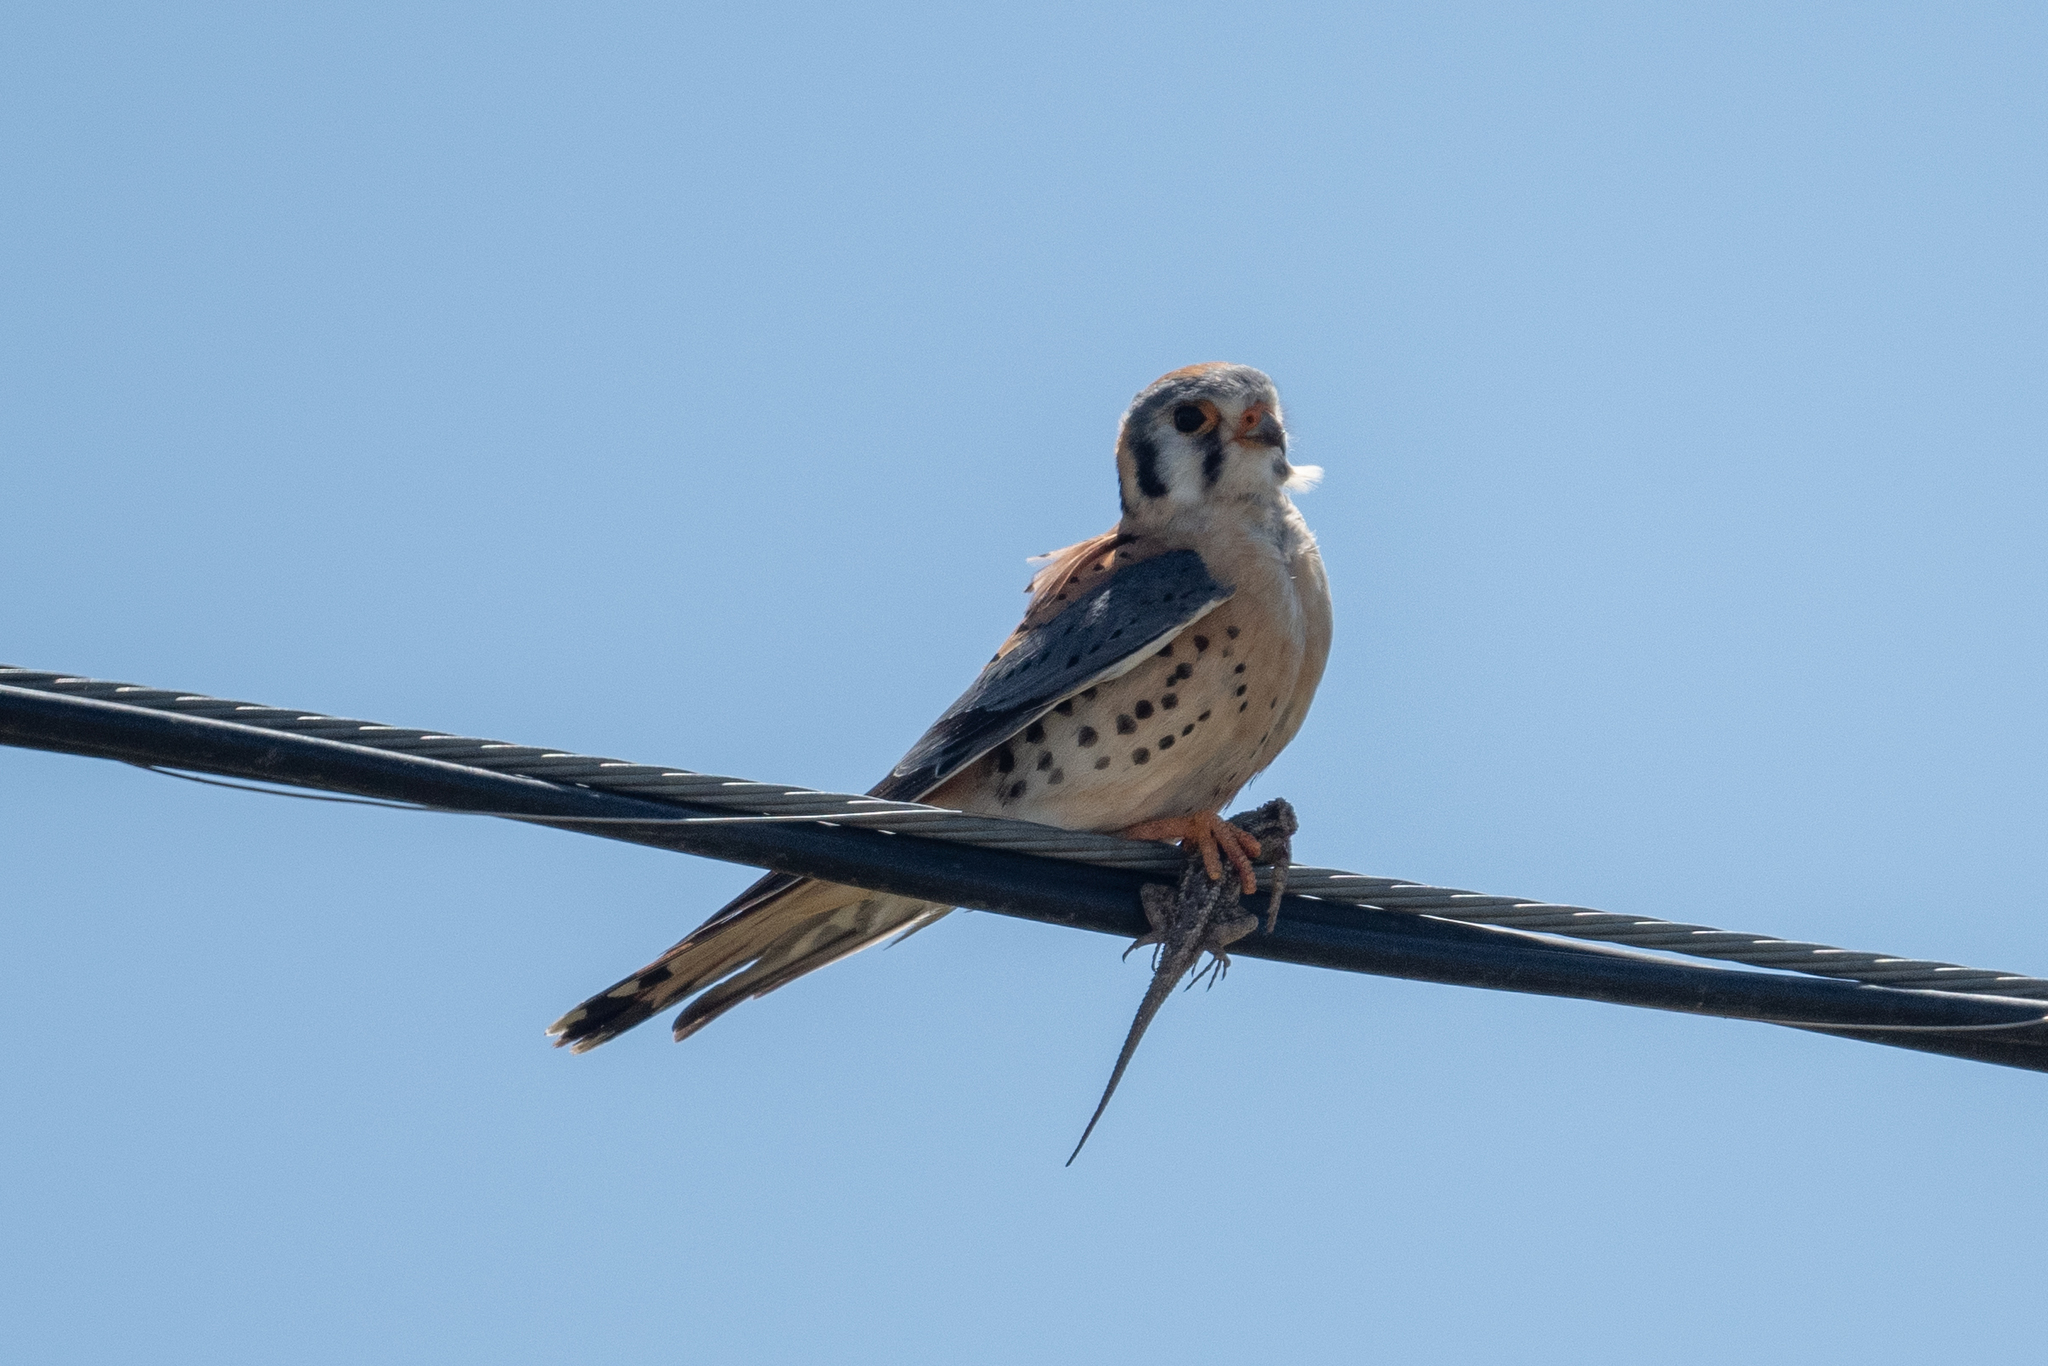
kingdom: Animalia
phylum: Chordata
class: Aves
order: Falconiformes
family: Falconidae
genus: Falco
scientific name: Falco sparverius
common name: American kestrel
